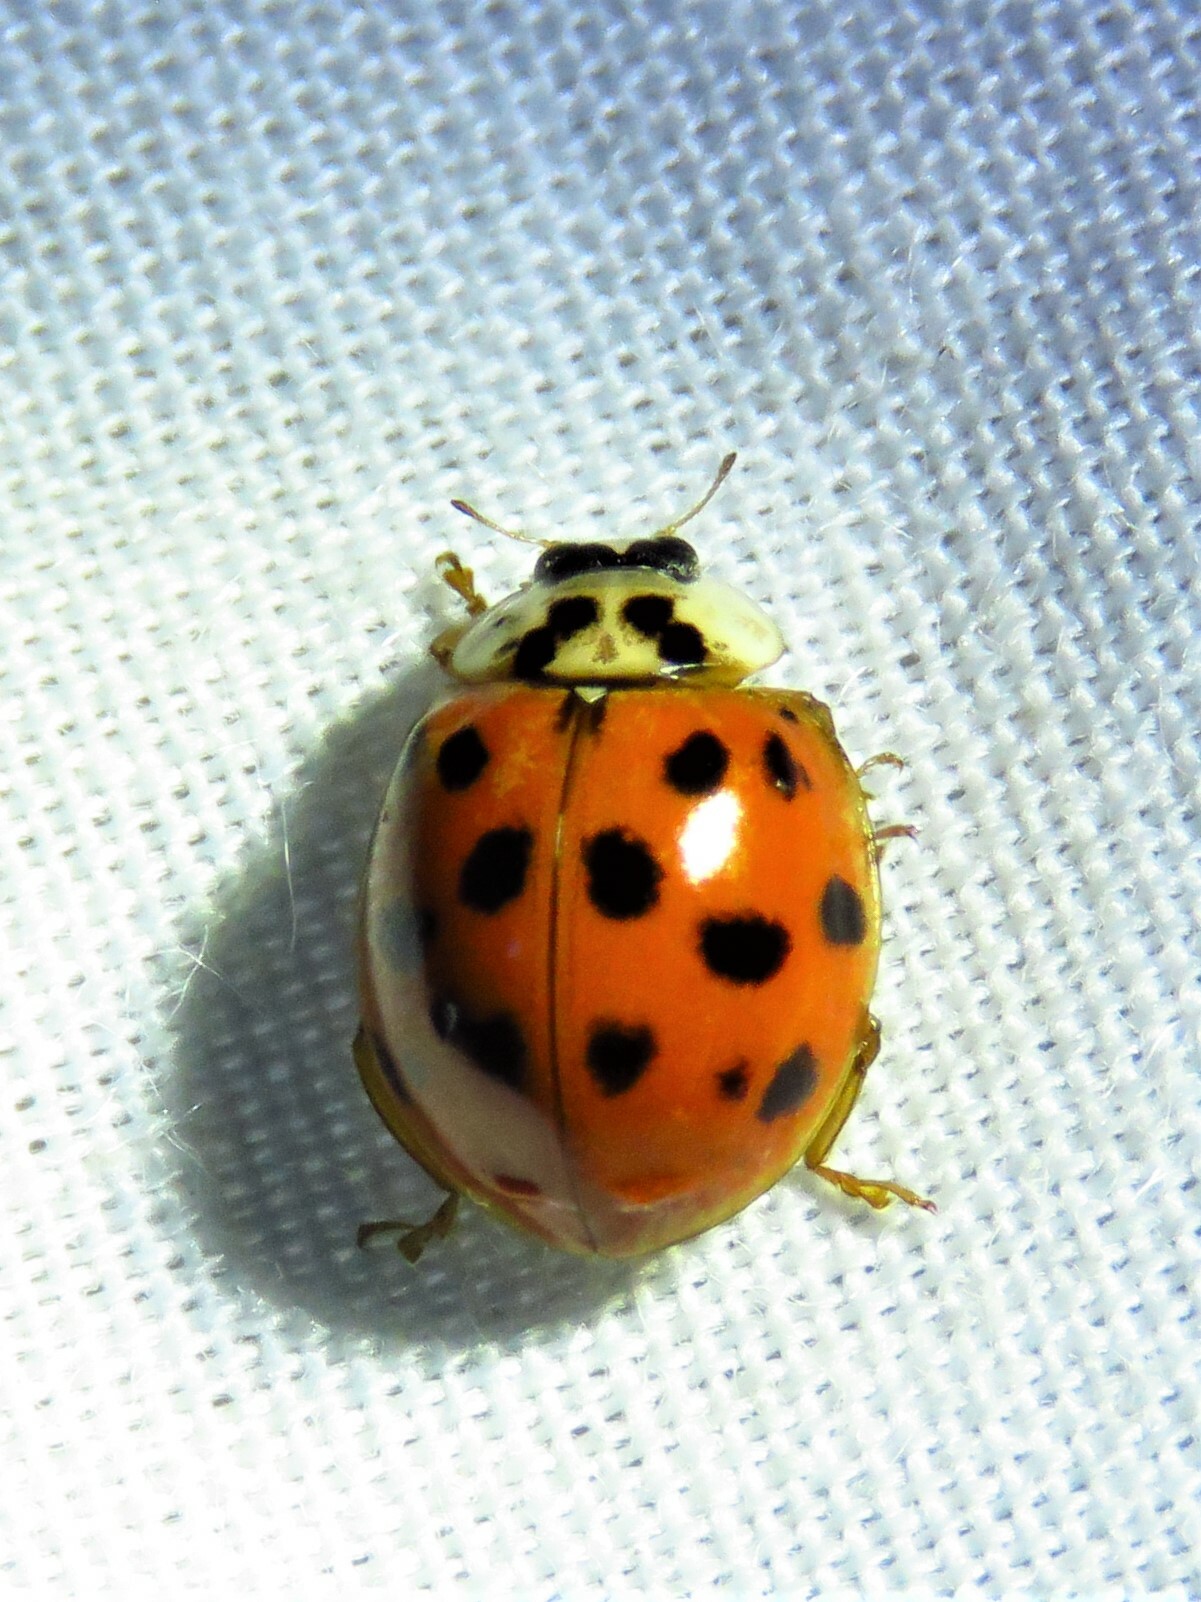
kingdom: Animalia
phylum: Arthropoda
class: Insecta
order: Coleoptera
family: Coccinellidae
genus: Harmonia
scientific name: Harmonia axyridis
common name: Harlequin ladybird
